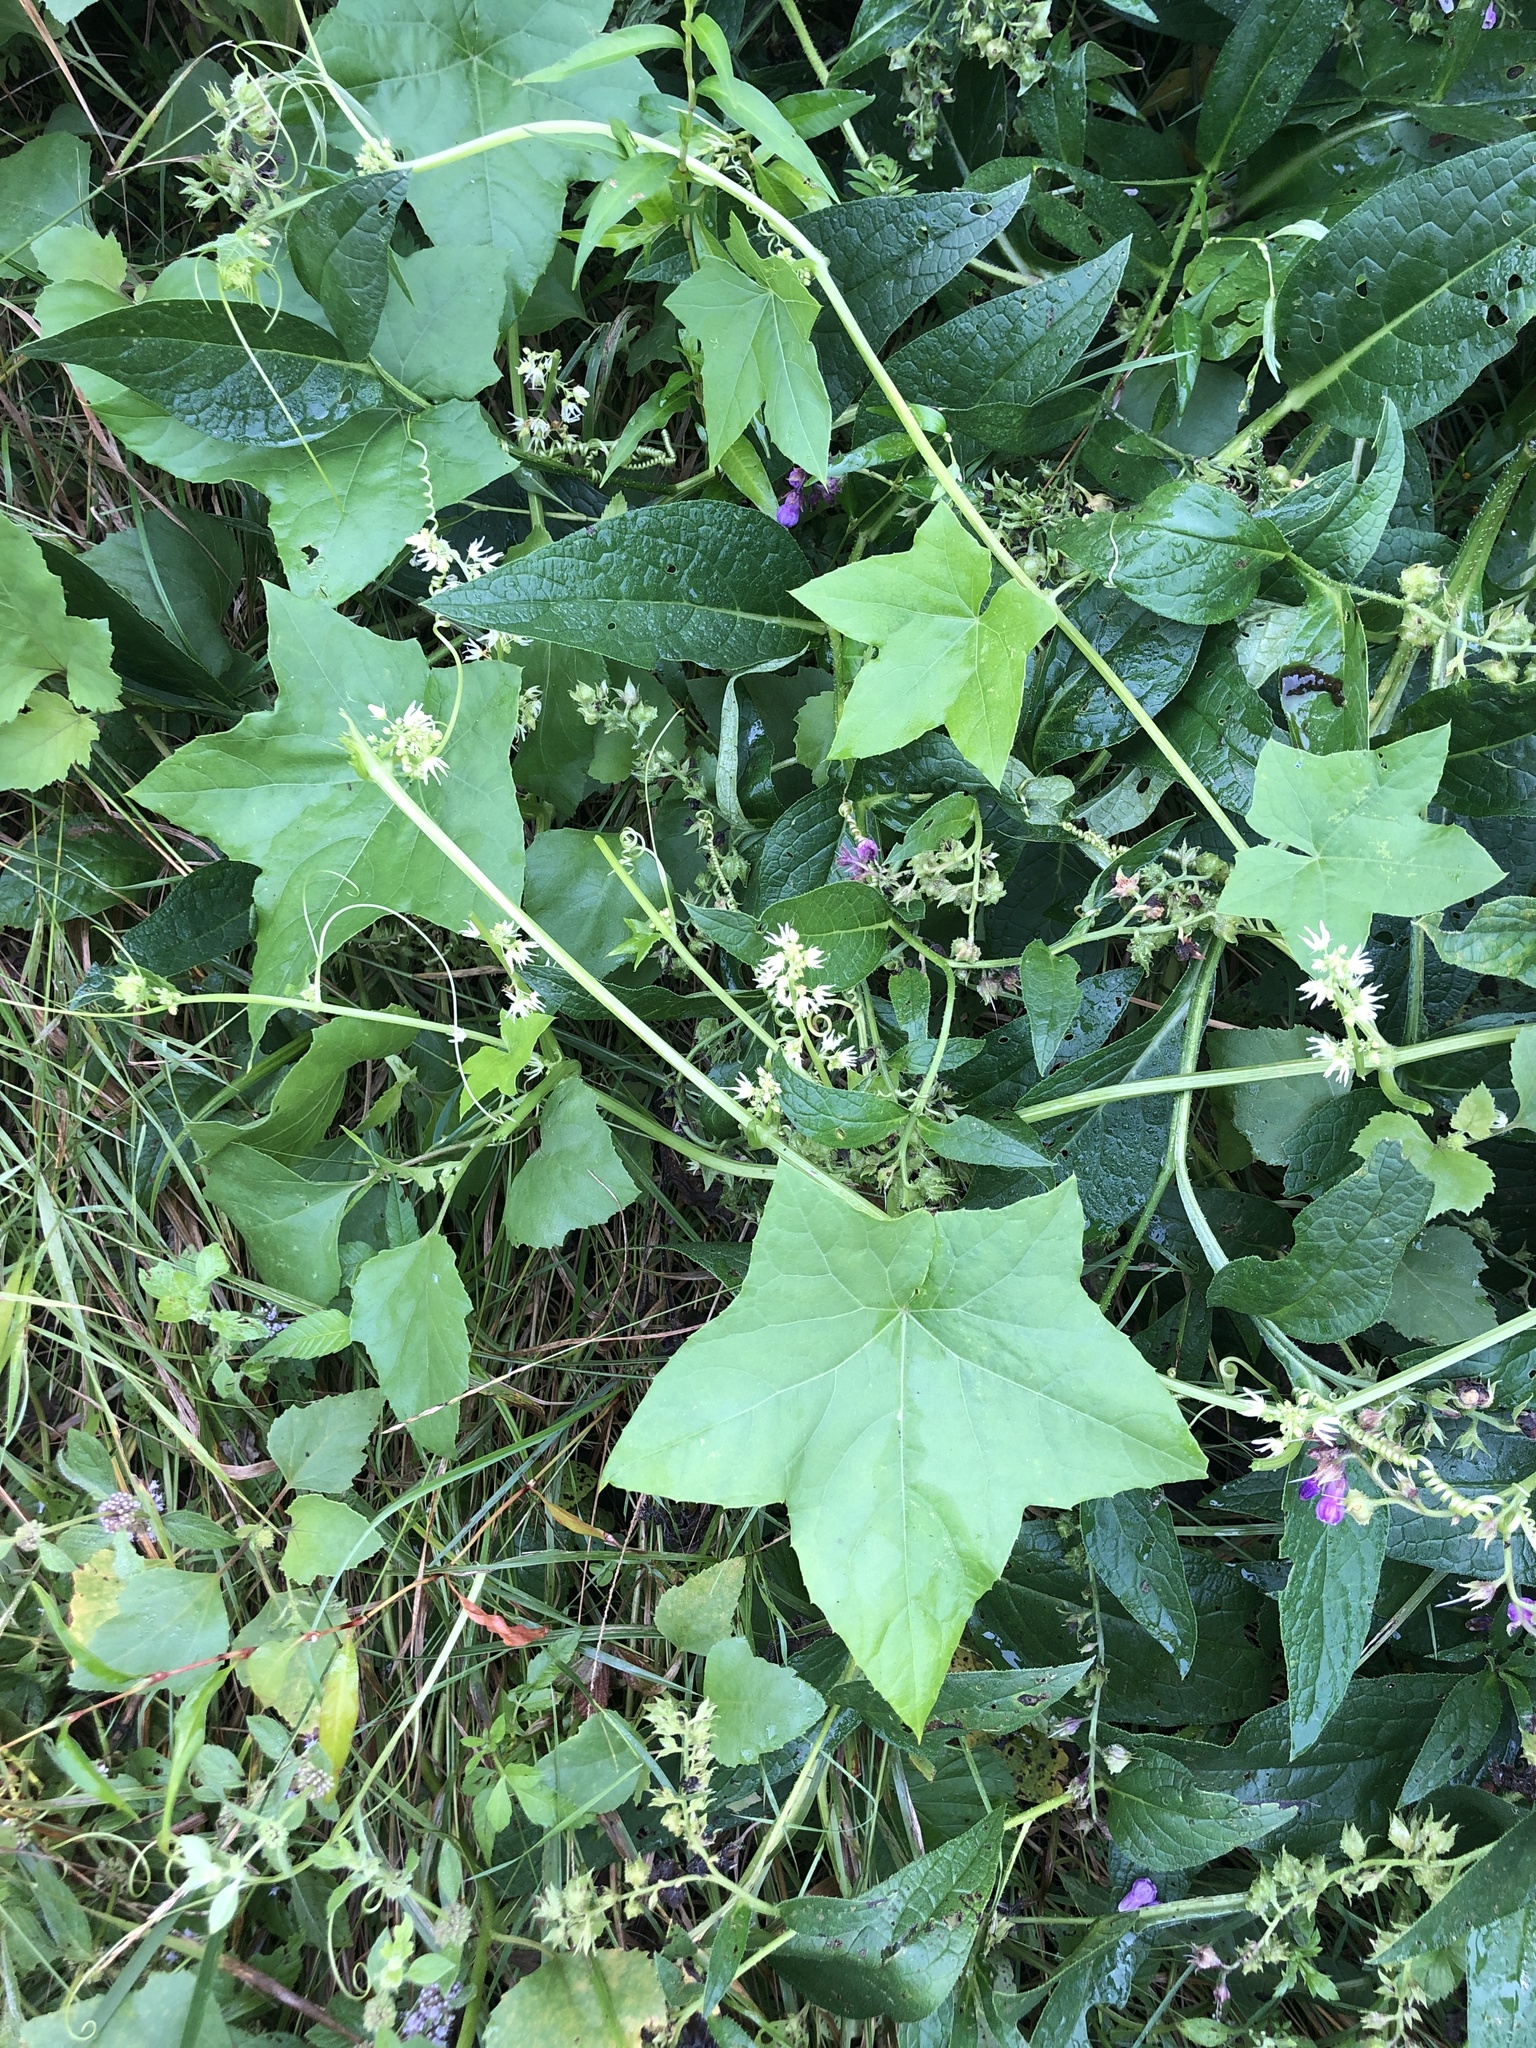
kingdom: Plantae
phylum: Tracheophyta
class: Magnoliopsida
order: Cucurbitales
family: Cucurbitaceae
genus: Echinocystis
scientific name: Echinocystis lobata
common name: Wild cucumber
